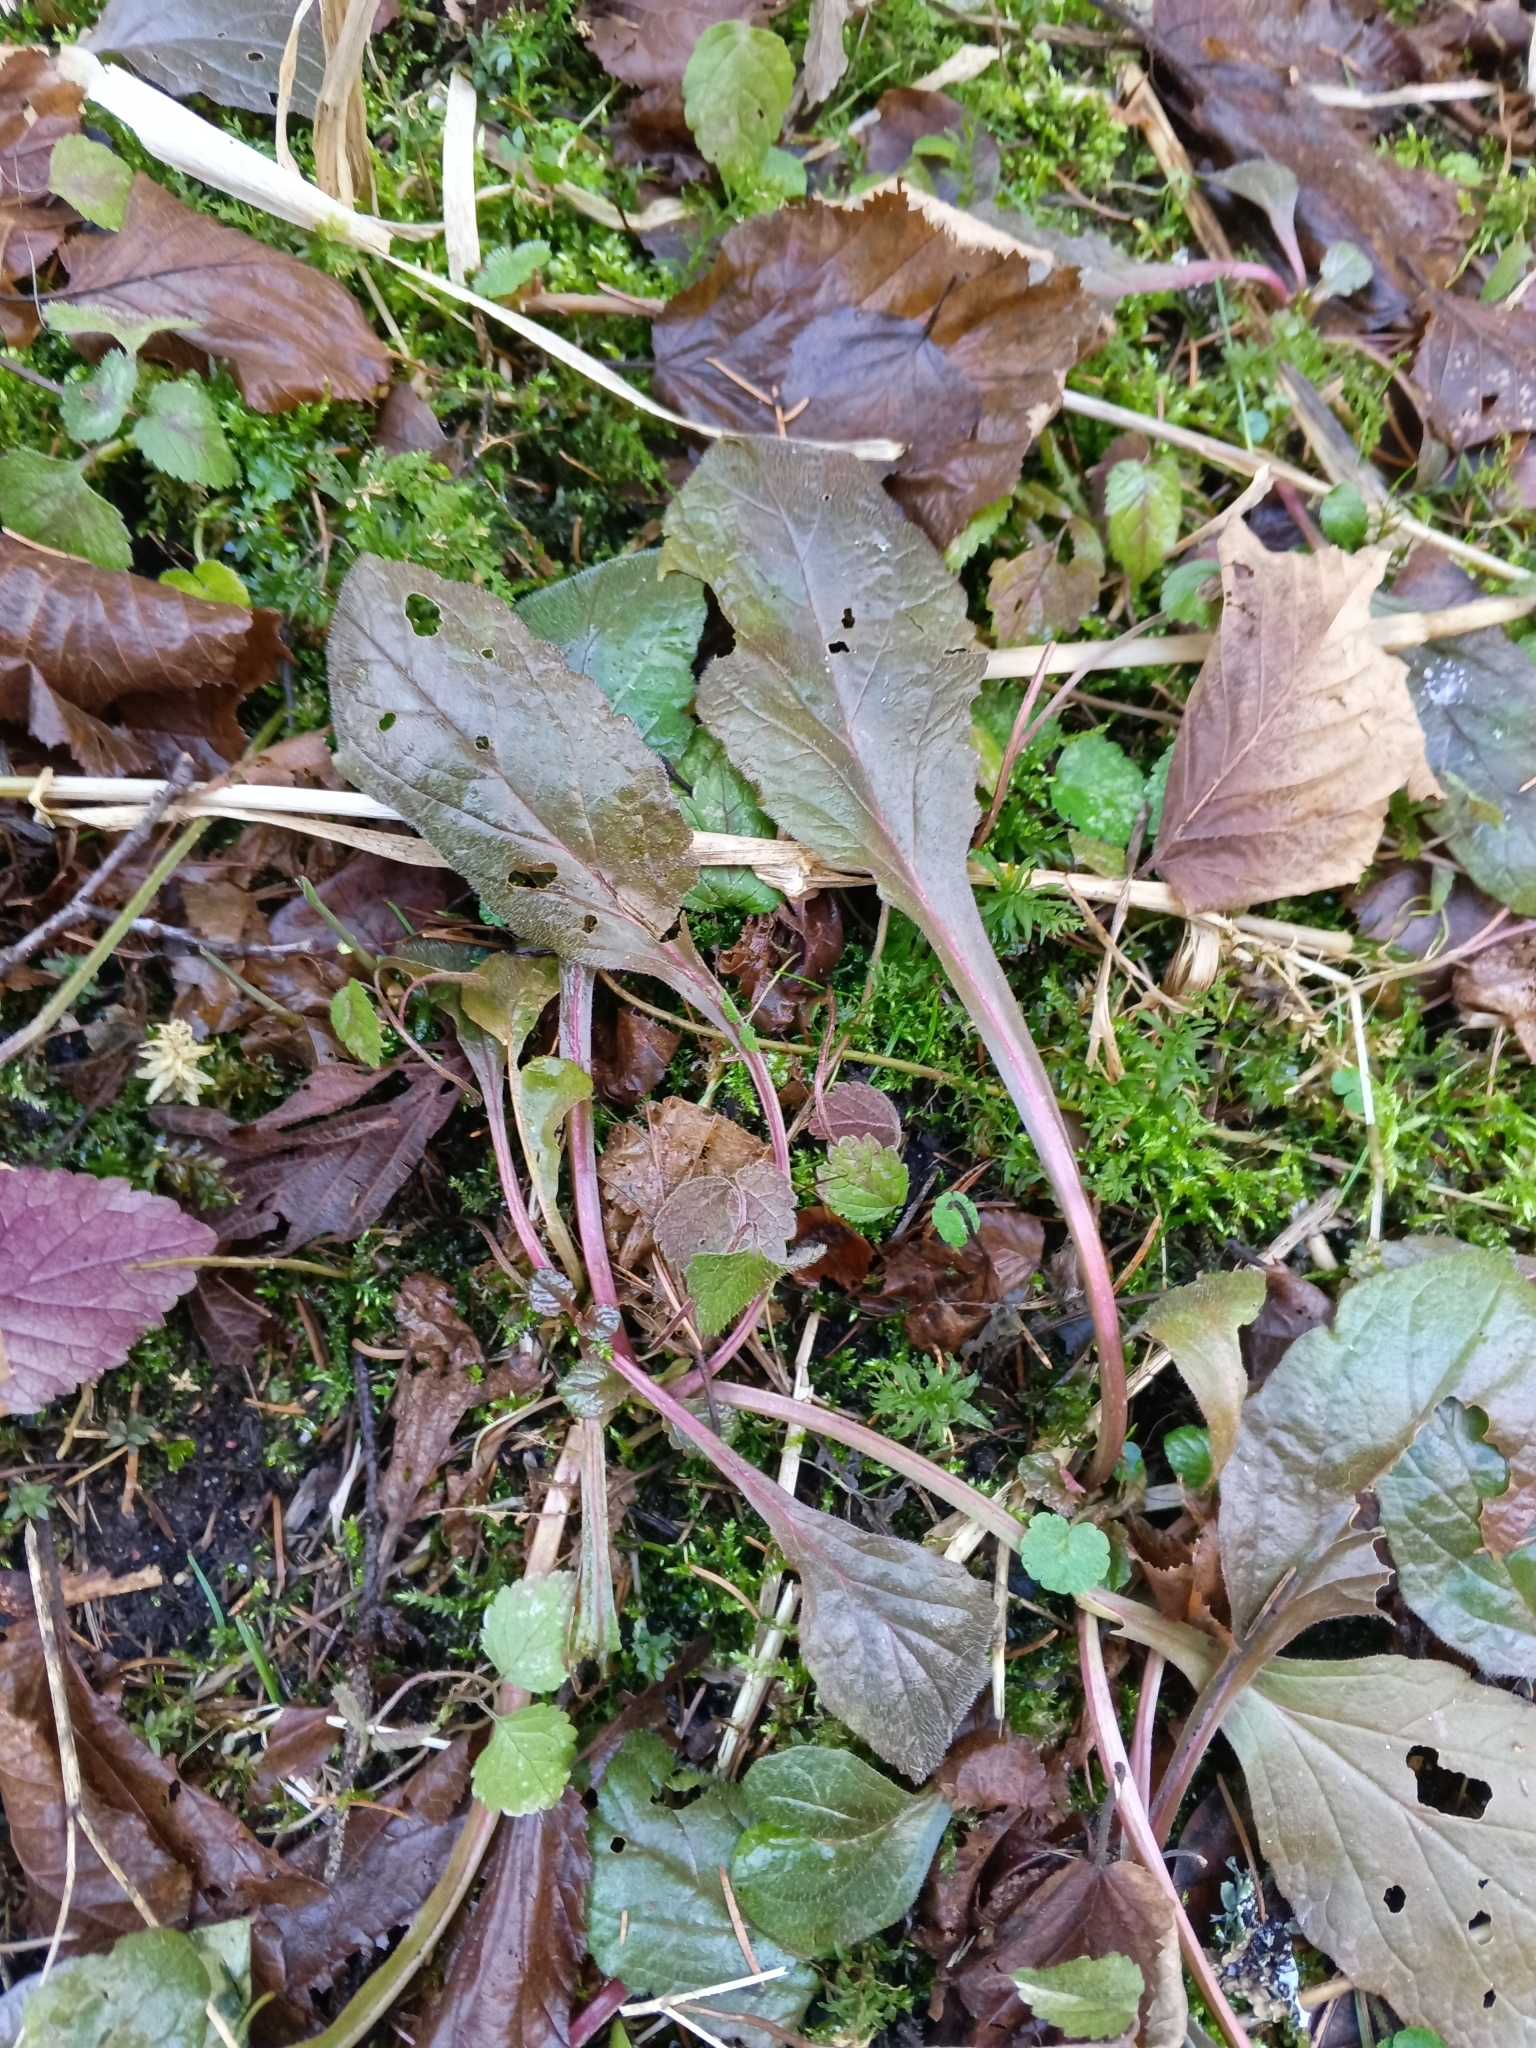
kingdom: Plantae
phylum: Tracheophyta
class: Magnoliopsida
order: Lamiales
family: Lamiaceae
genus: Ajuga
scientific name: Ajuga reptans
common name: Bugle
